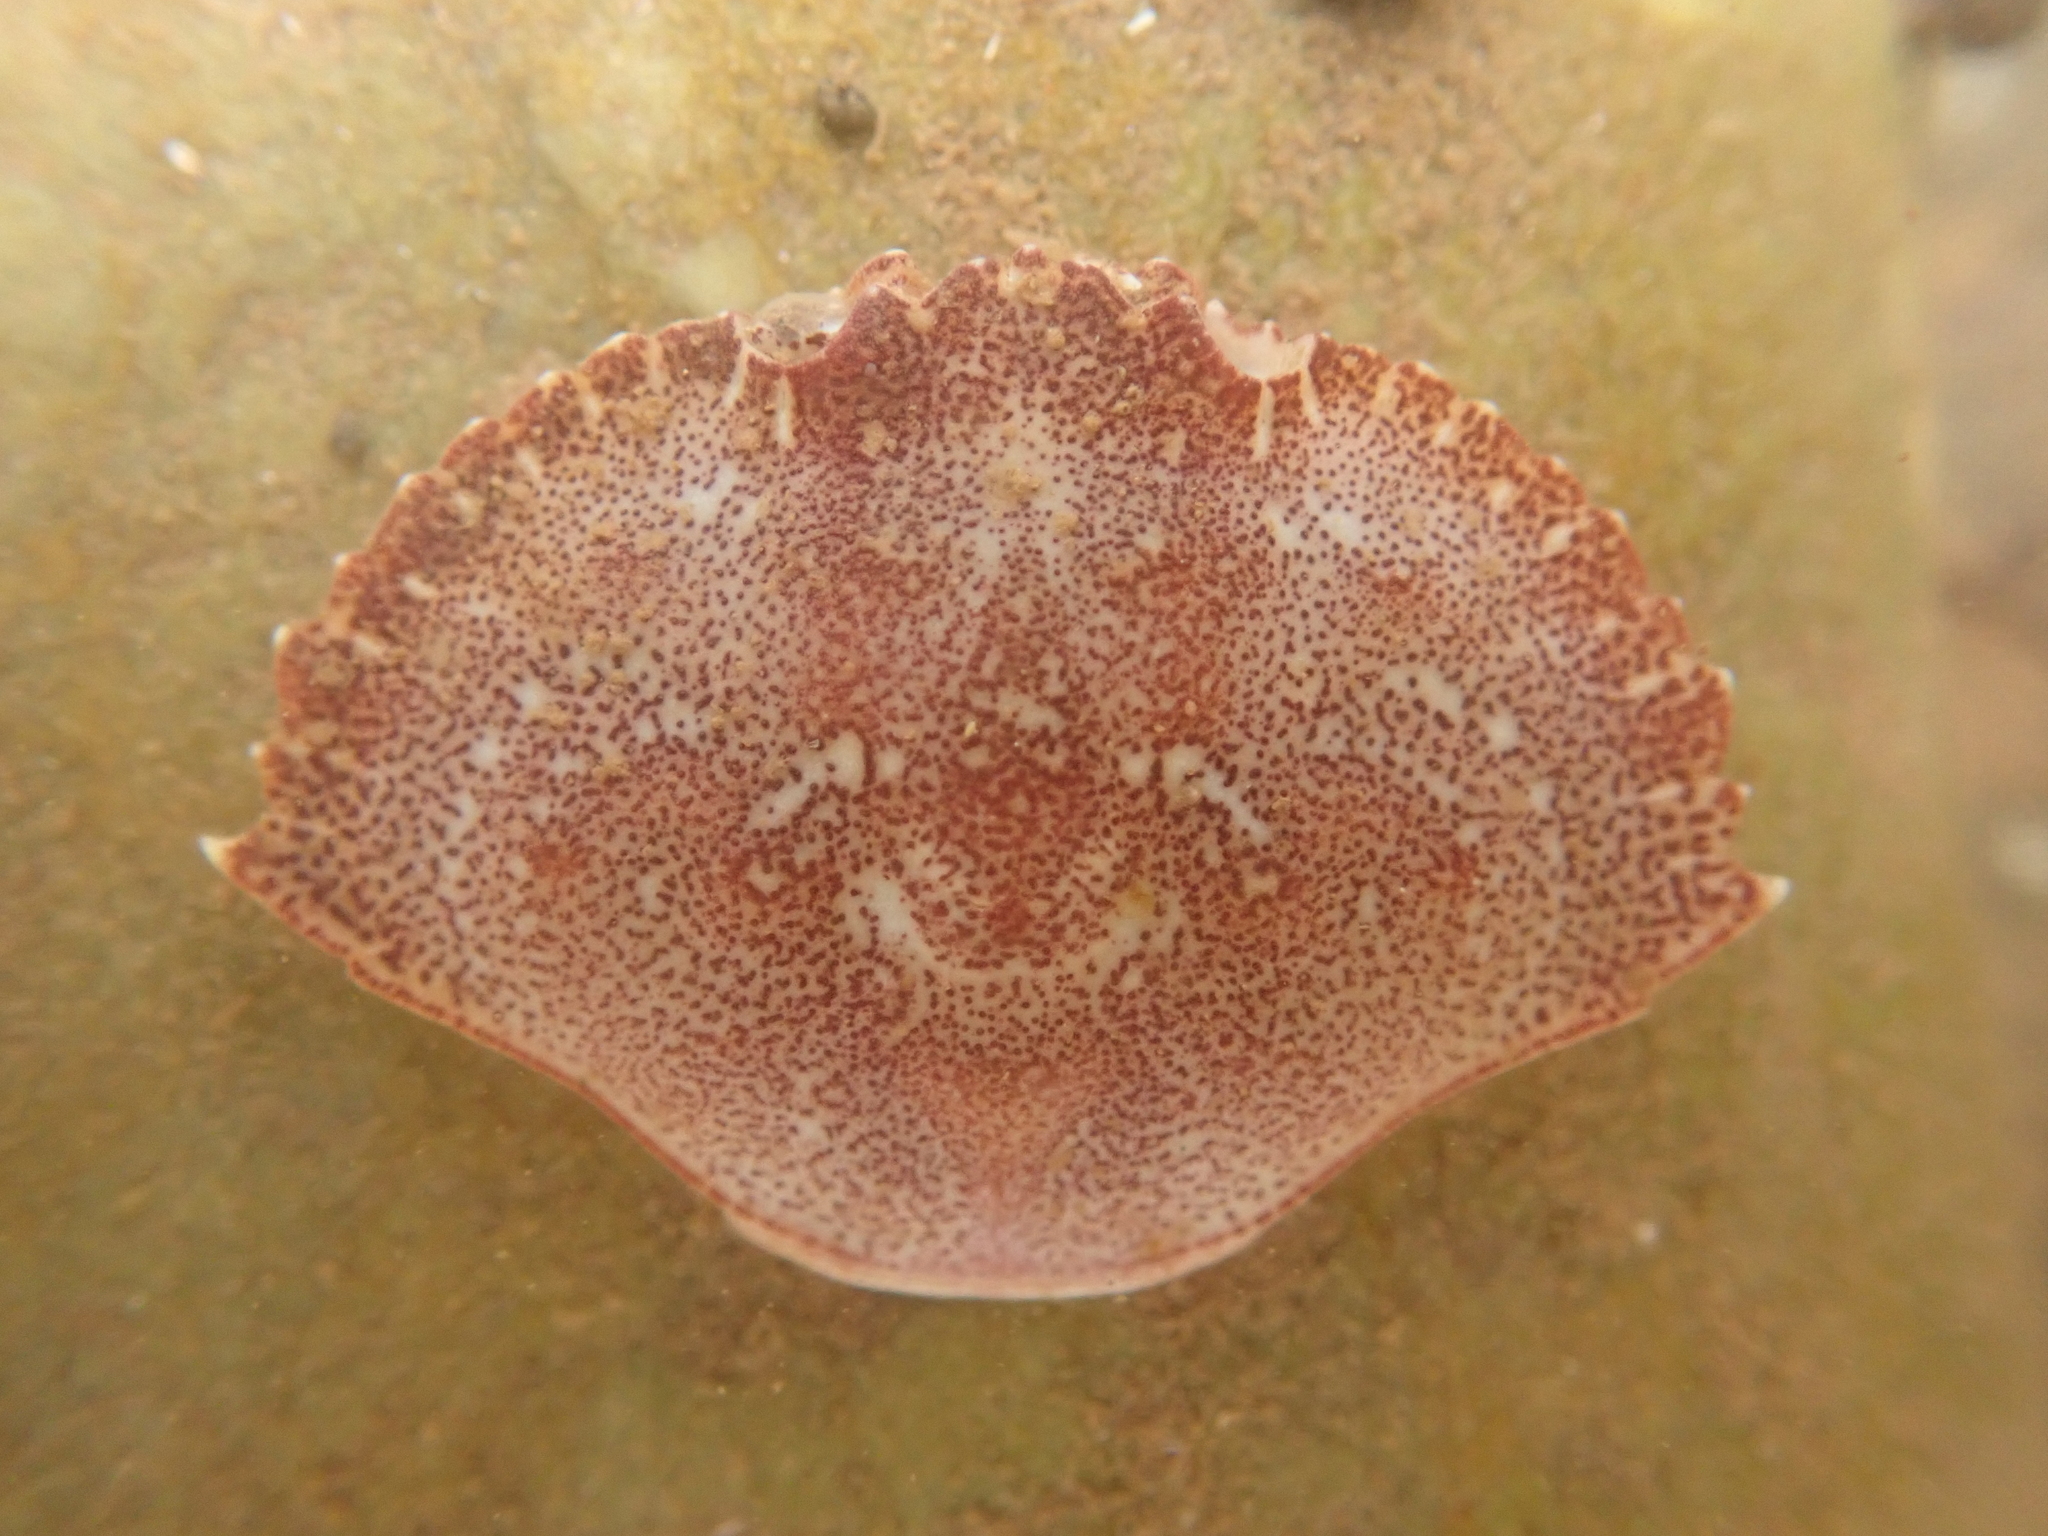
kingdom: Animalia
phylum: Arthropoda
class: Malacostraca
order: Decapoda
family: Cancridae
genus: Cancer
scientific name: Cancer irroratus
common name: Atlantic rock crab
